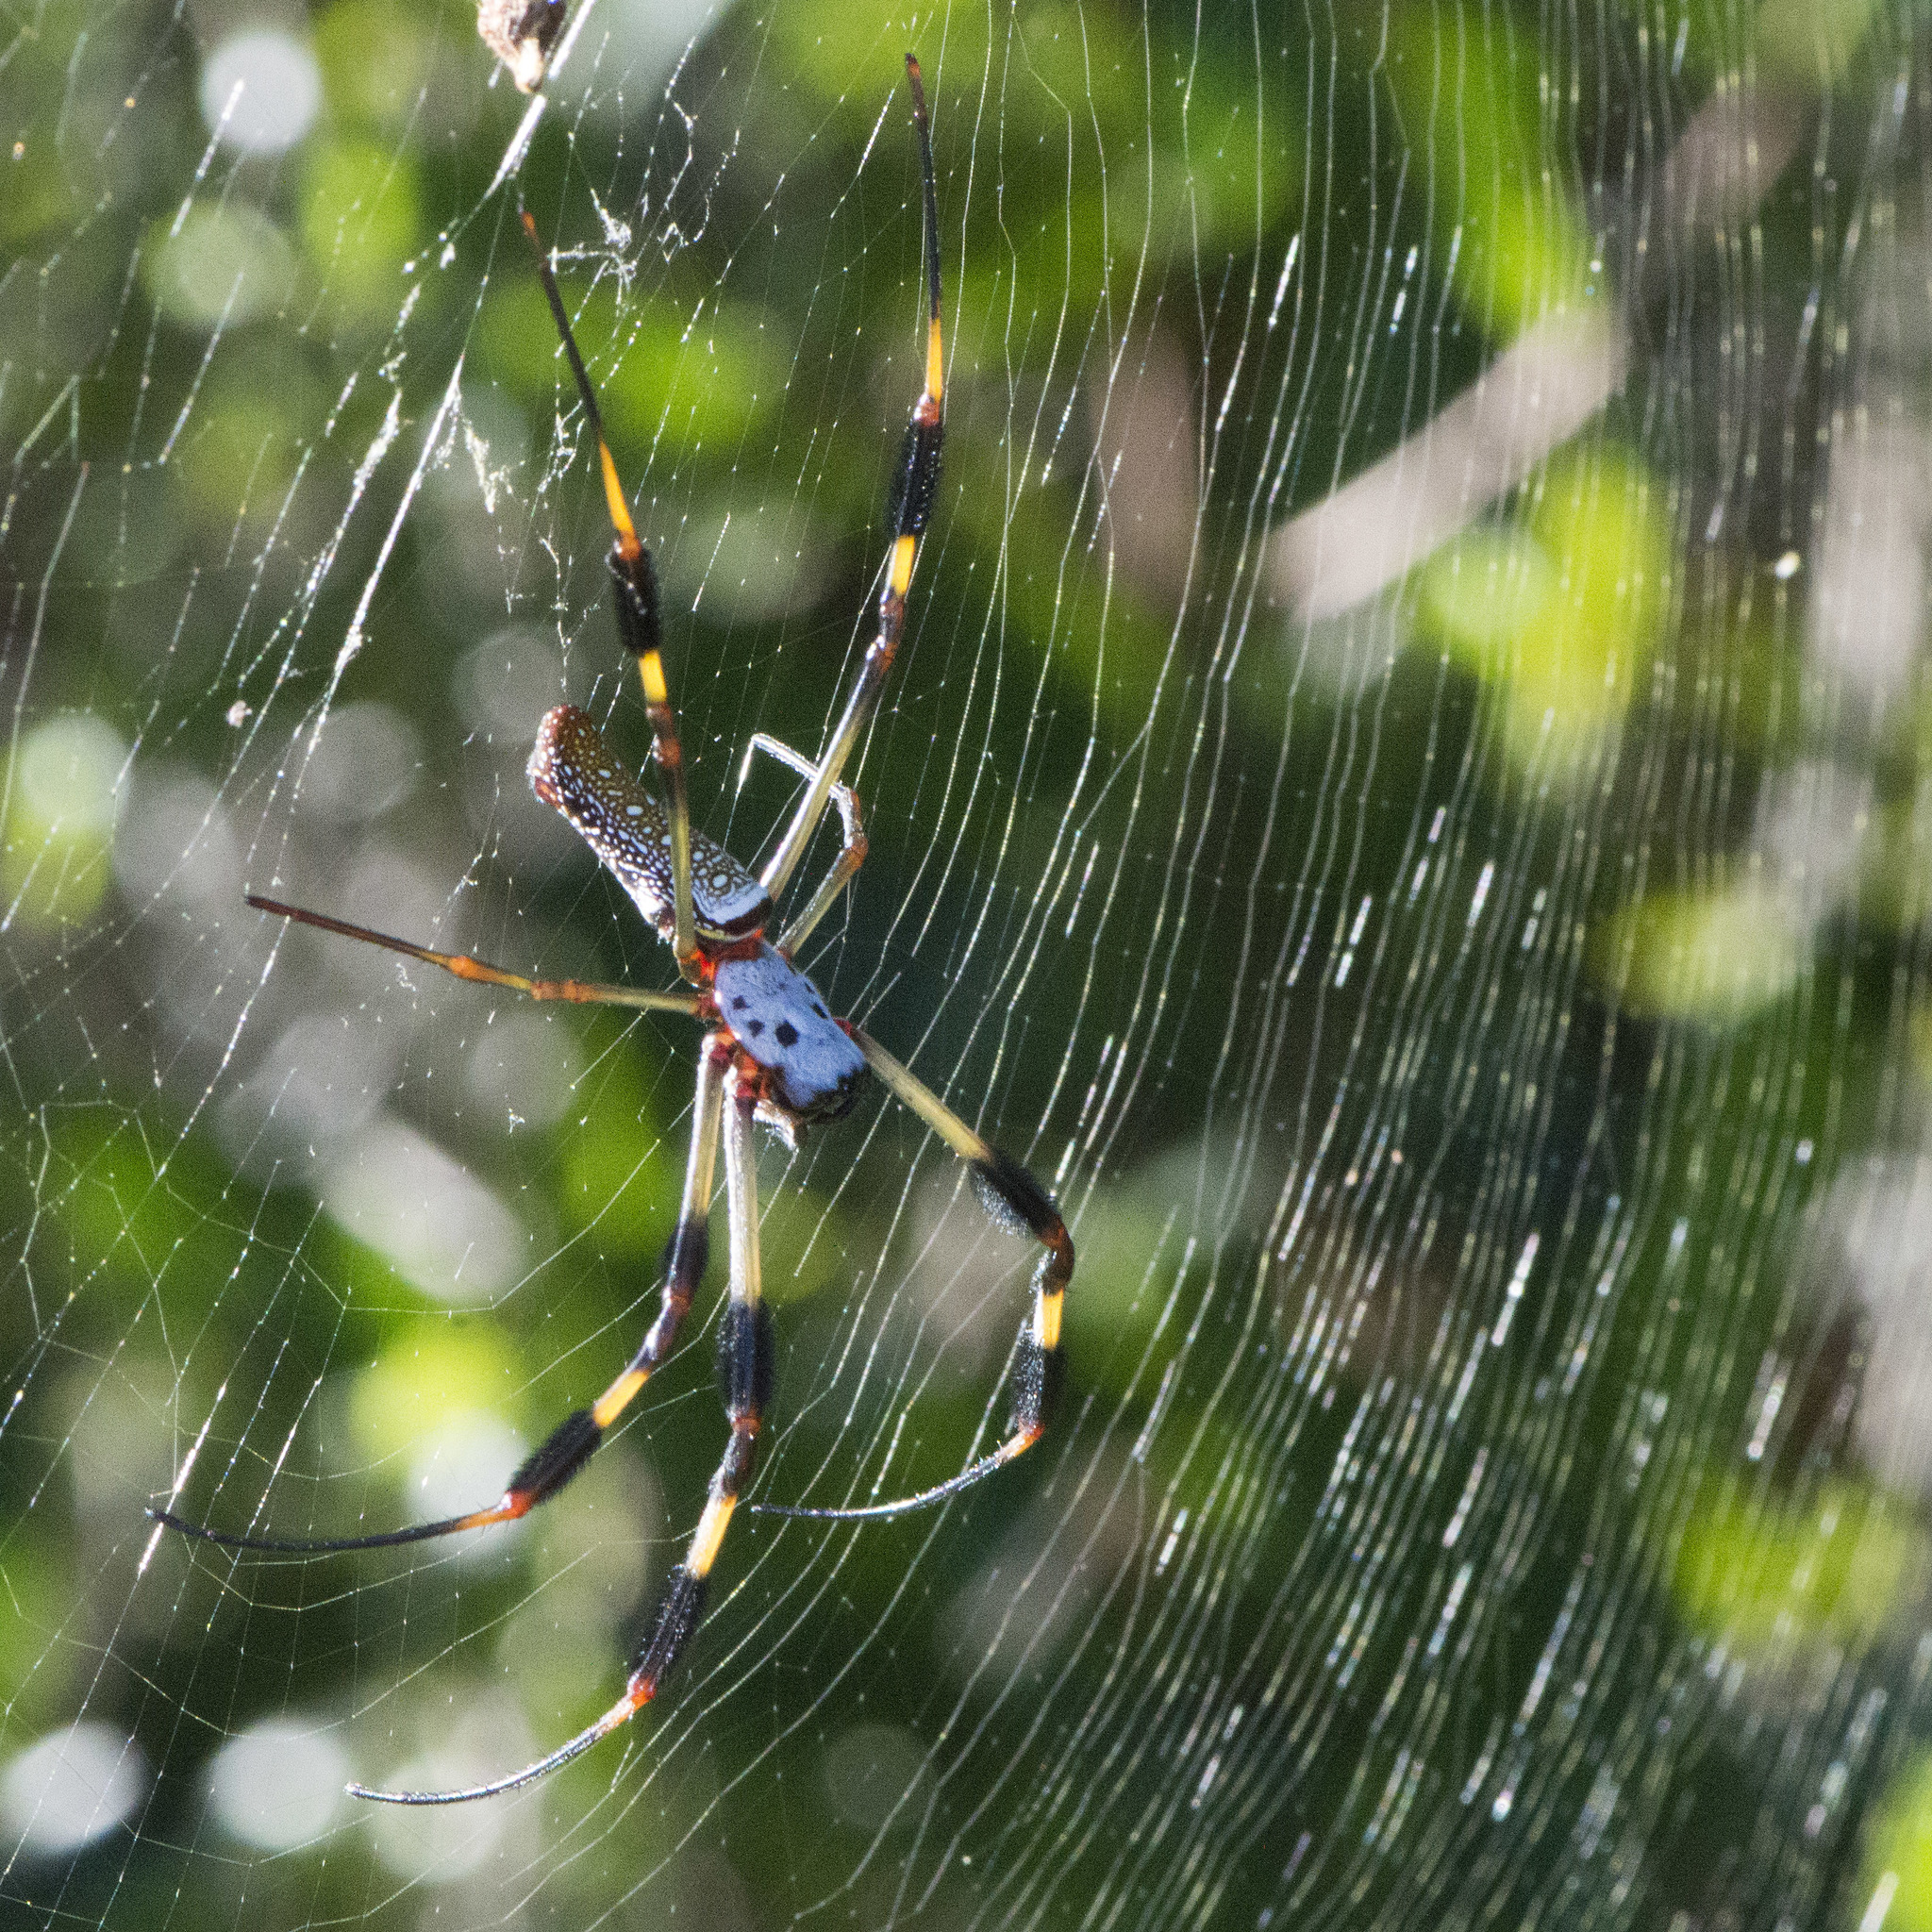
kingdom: Animalia
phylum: Arthropoda
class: Arachnida
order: Araneae
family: Araneidae
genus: Trichonephila
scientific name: Trichonephila clavipes
